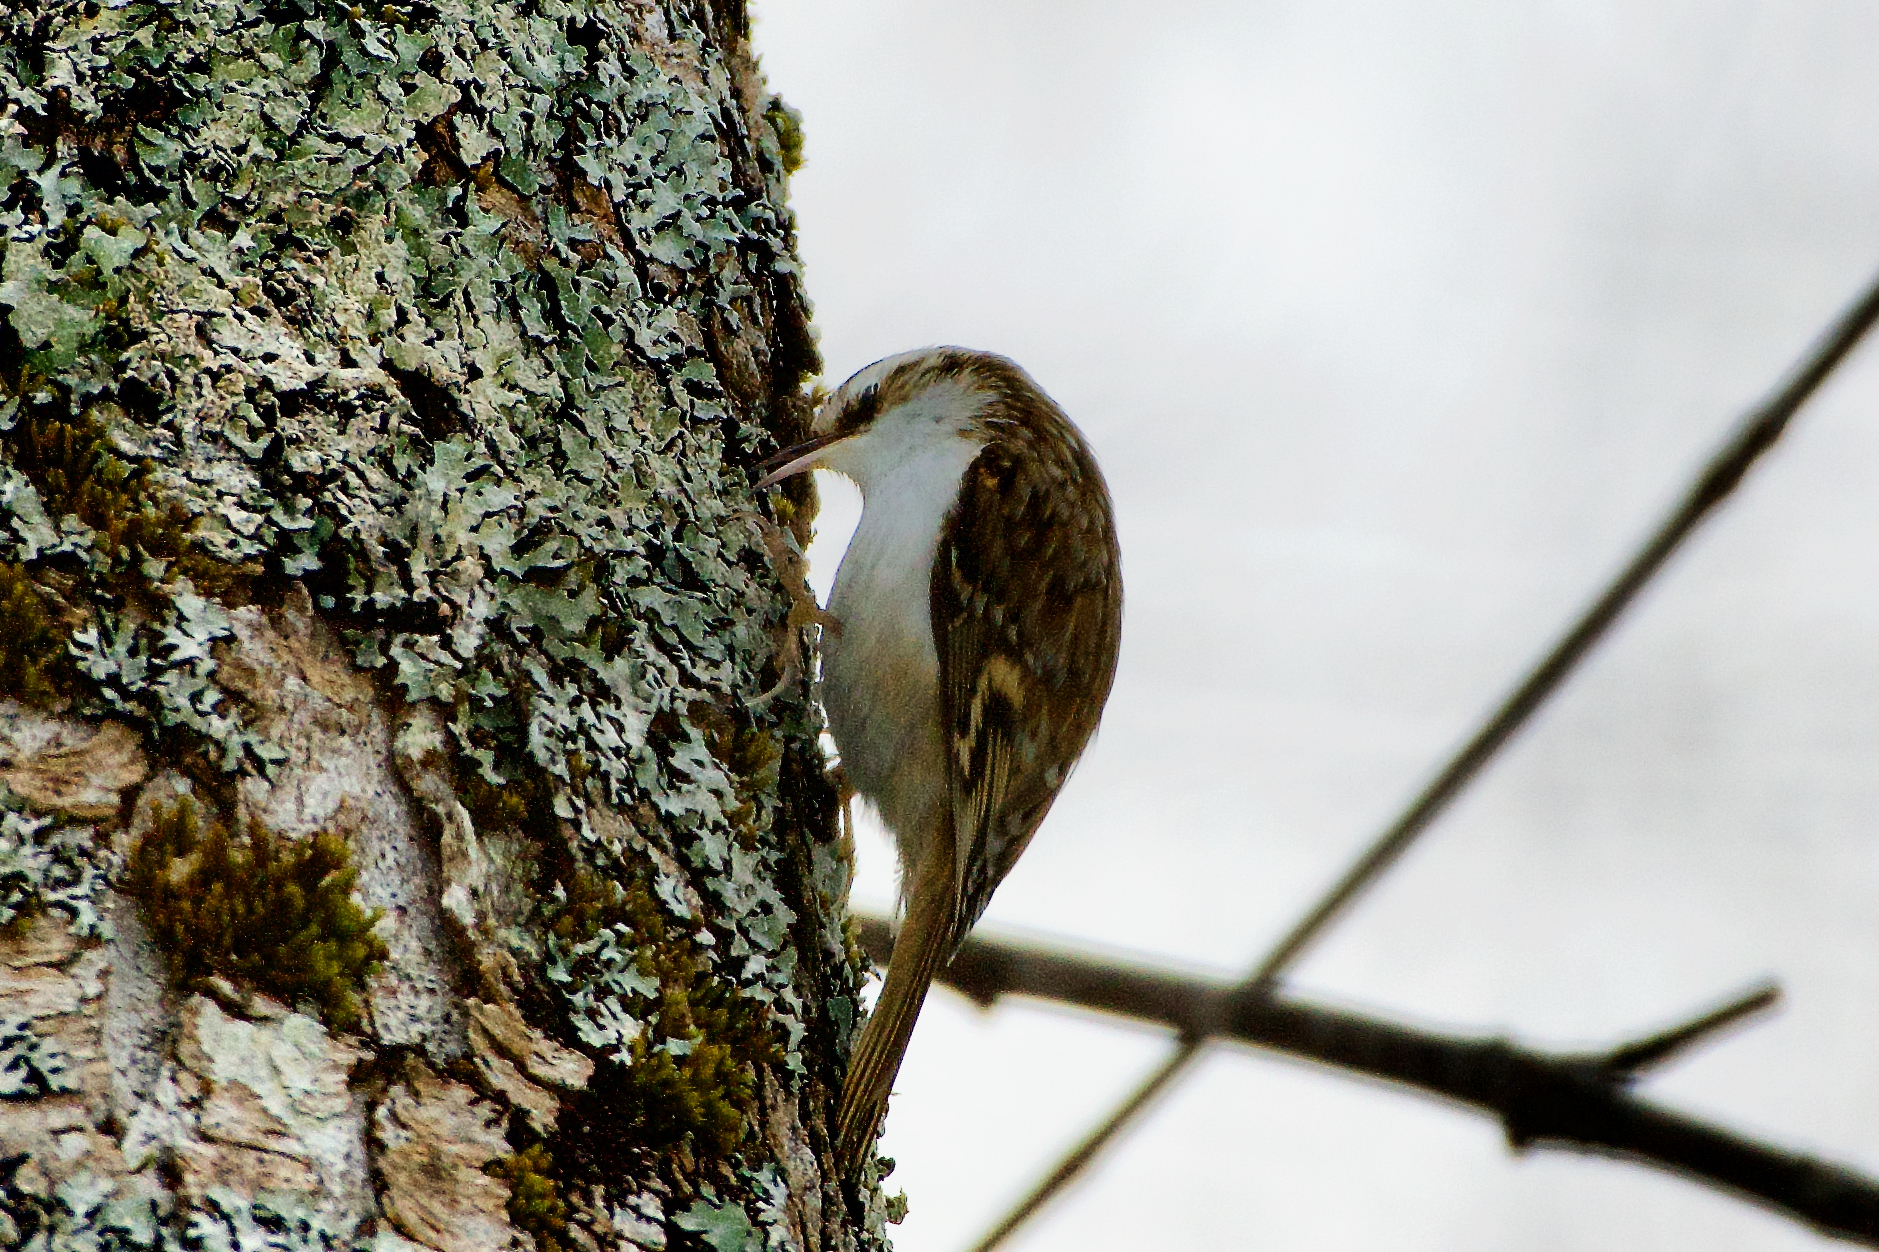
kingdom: Animalia
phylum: Chordata
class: Aves
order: Passeriformes
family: Certhiidae
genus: Certhia
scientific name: Certhia familiaris
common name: Eurasian treecreeper
